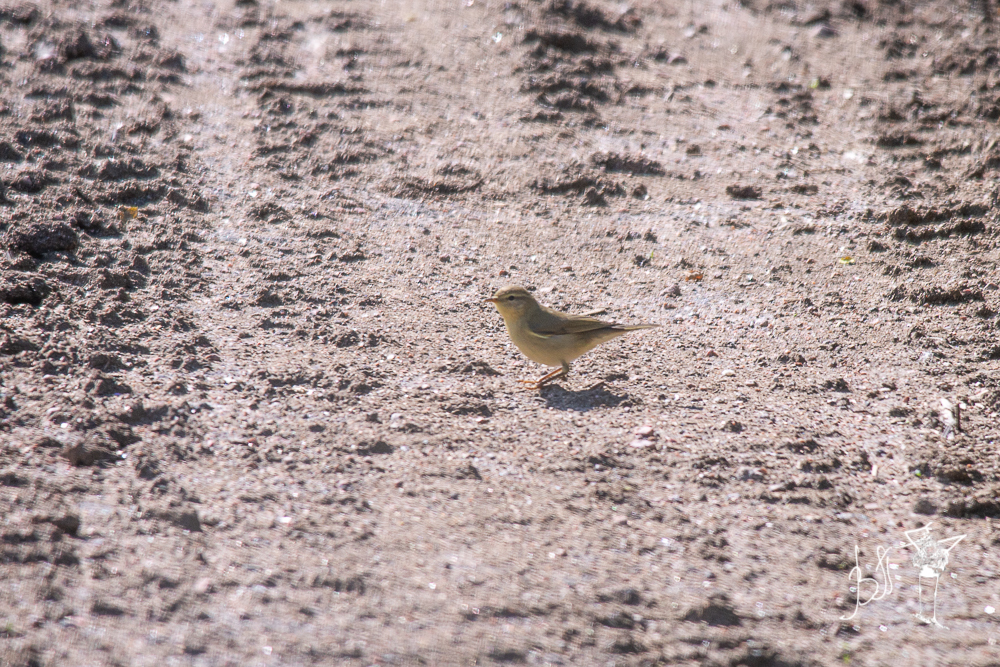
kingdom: Animalia
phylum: Chordata
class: Aves
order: Passeriformes
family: Phylloscopidae
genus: Phylloscopus
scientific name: Phylloscopus trochilus
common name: Willow warbler
